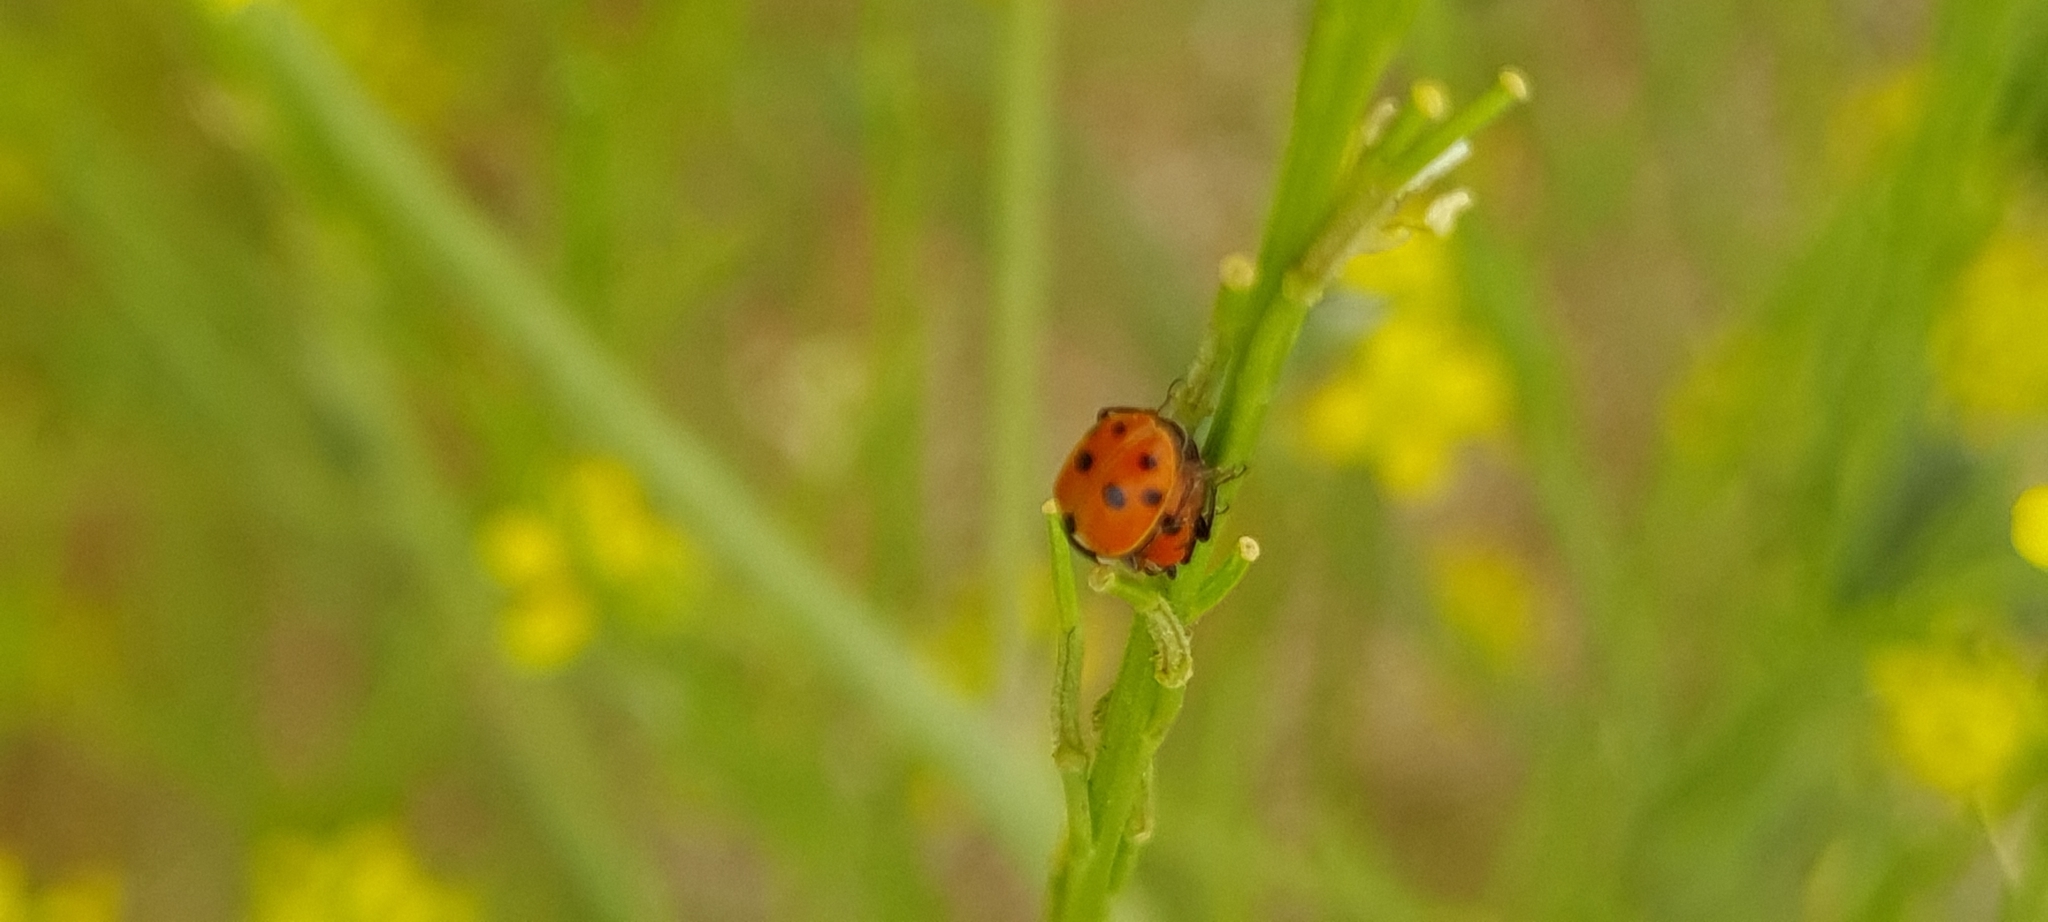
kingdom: Animalia
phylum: Arthropoda
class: Insecta
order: Coleoptera
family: Coccinellidae
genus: Hippodamia
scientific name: Hippodamia variegata
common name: Ladybird beetle
